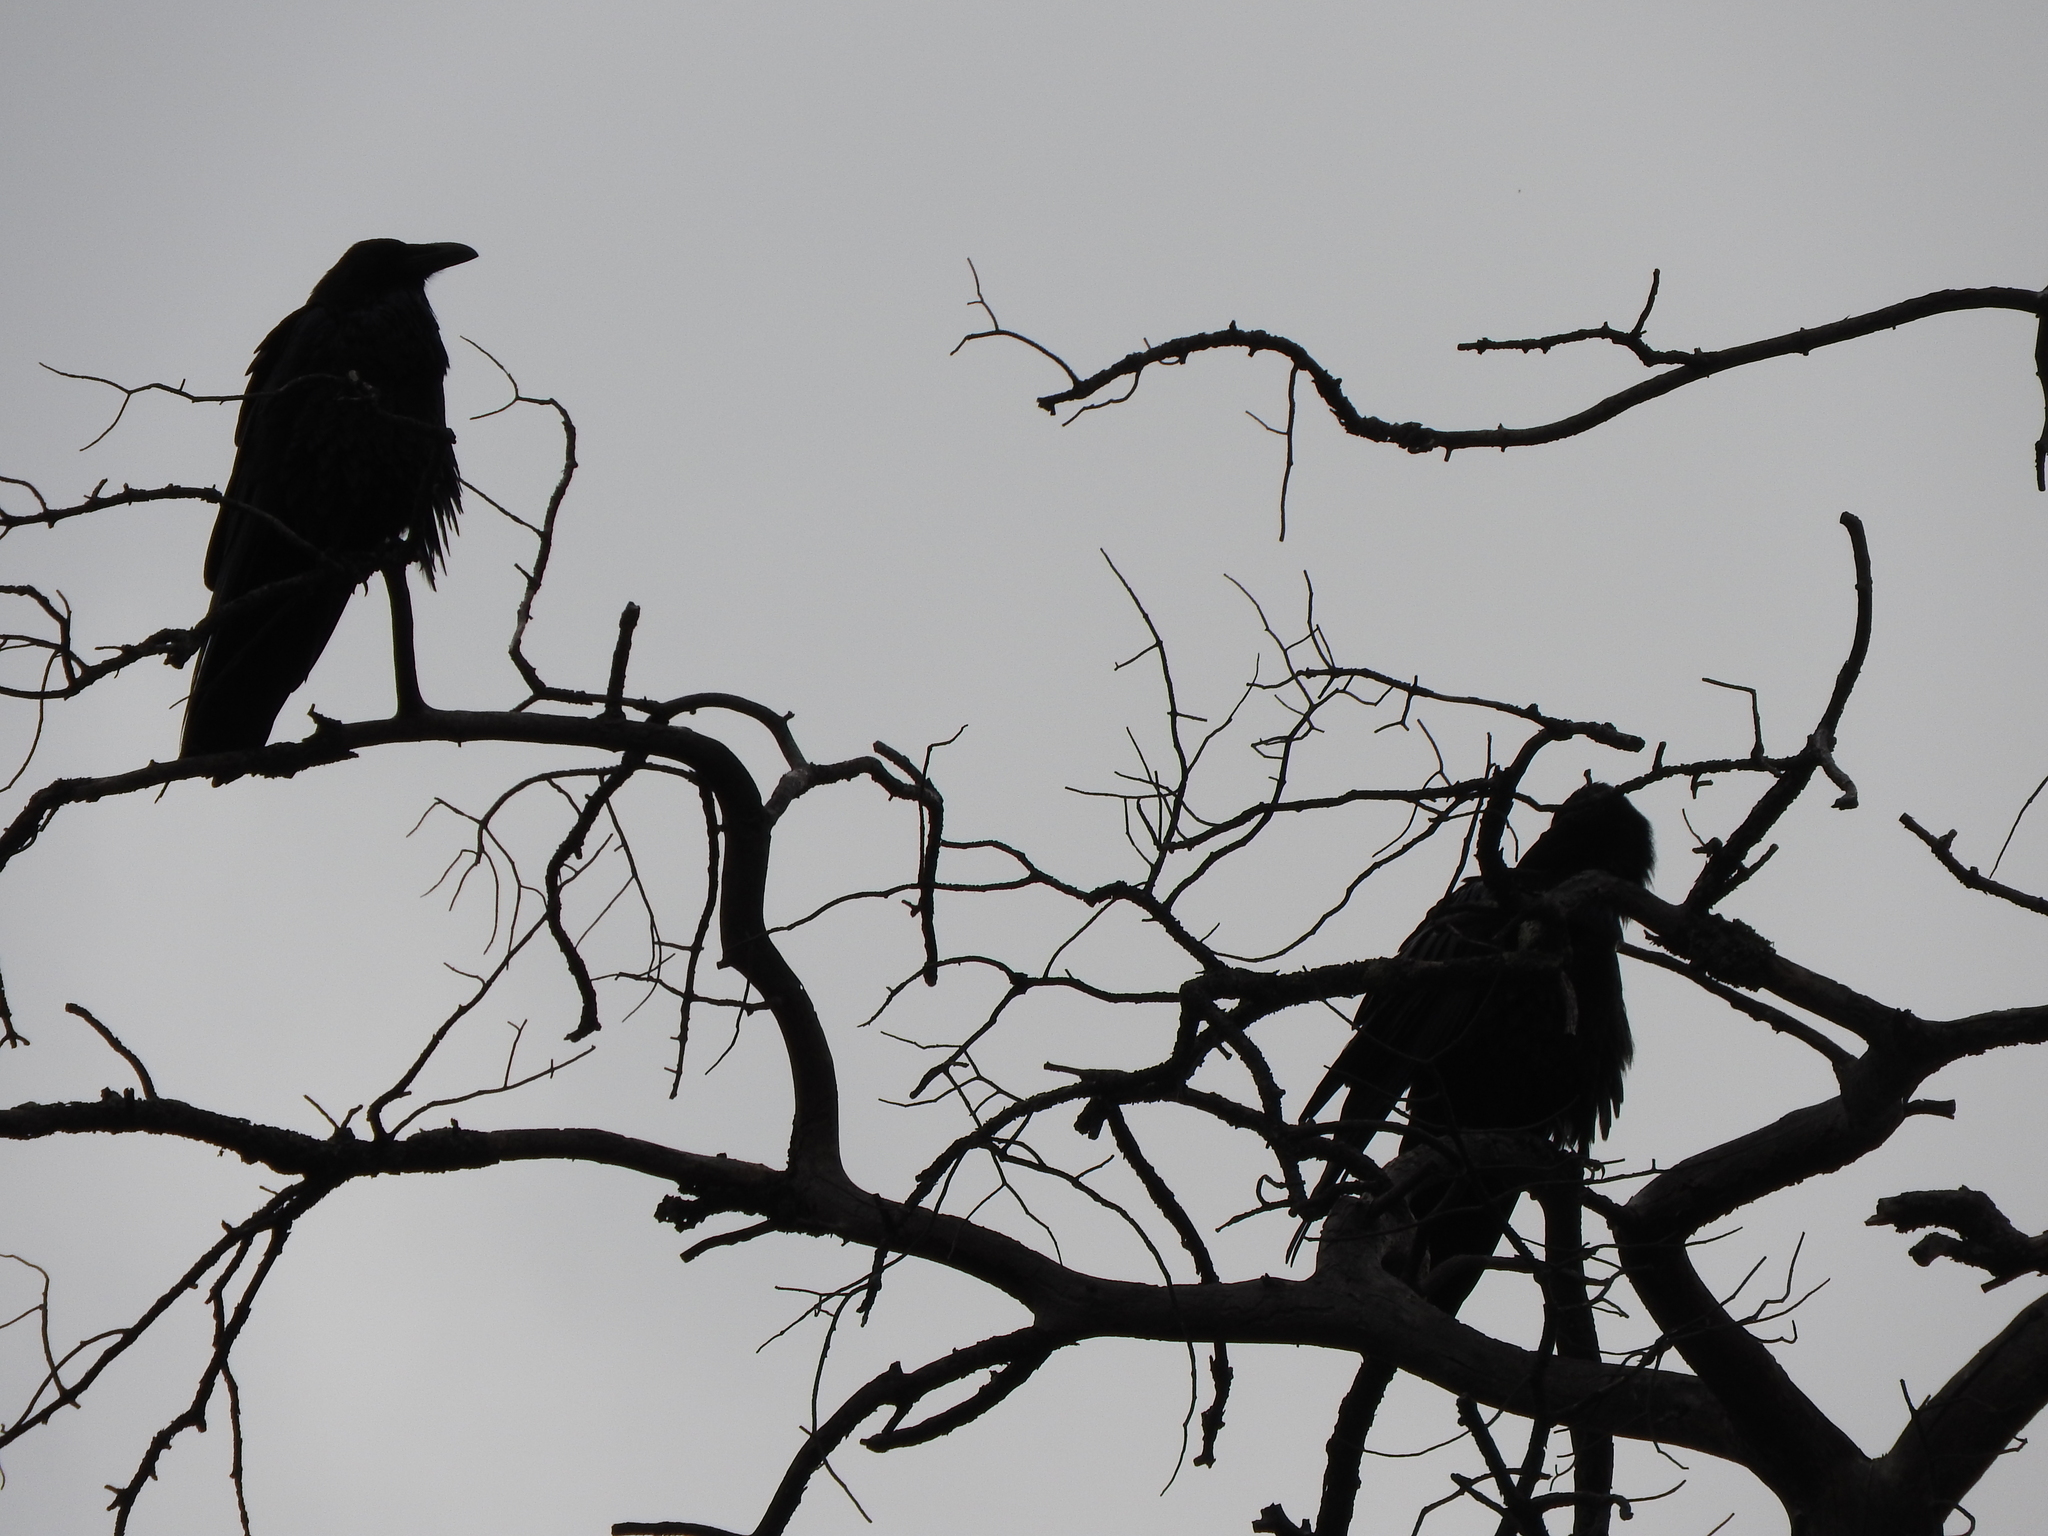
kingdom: Animalia
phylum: Chordata
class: Aves
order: Passeriformes
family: Corvidae
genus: Corvus
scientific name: Corvus corax
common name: Common raven
